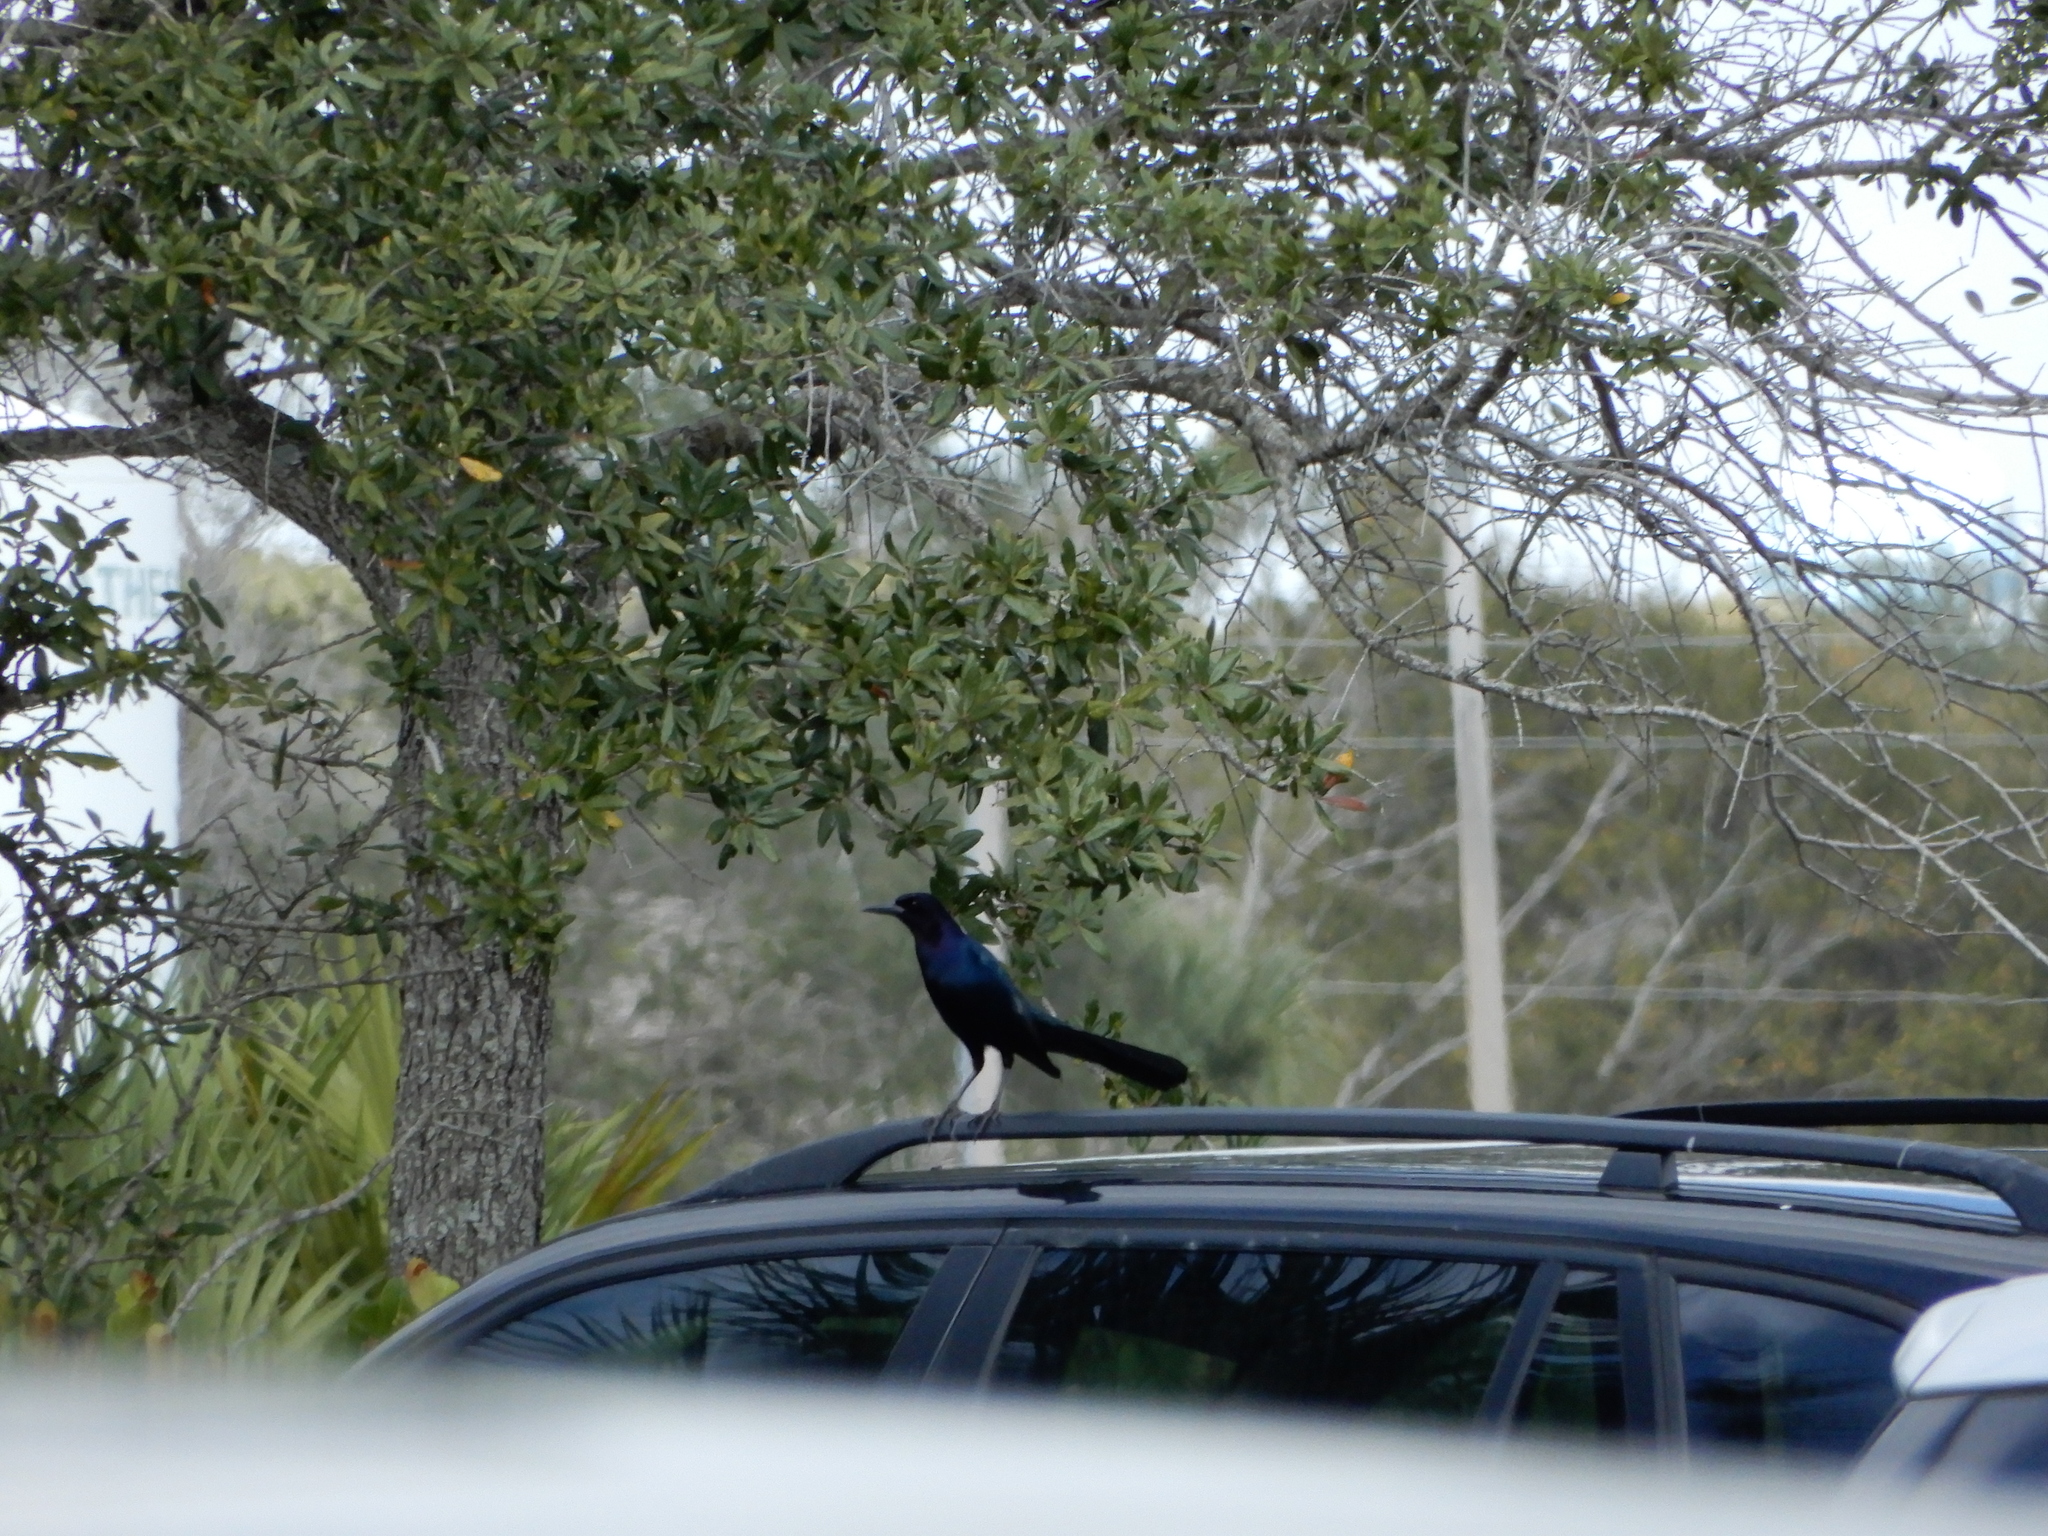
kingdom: Animalia
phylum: Chordata
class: Aves
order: Passeriformes
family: Icteridae
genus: Quiscalus
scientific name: Quiscalus major
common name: Boat-tailed grackle
